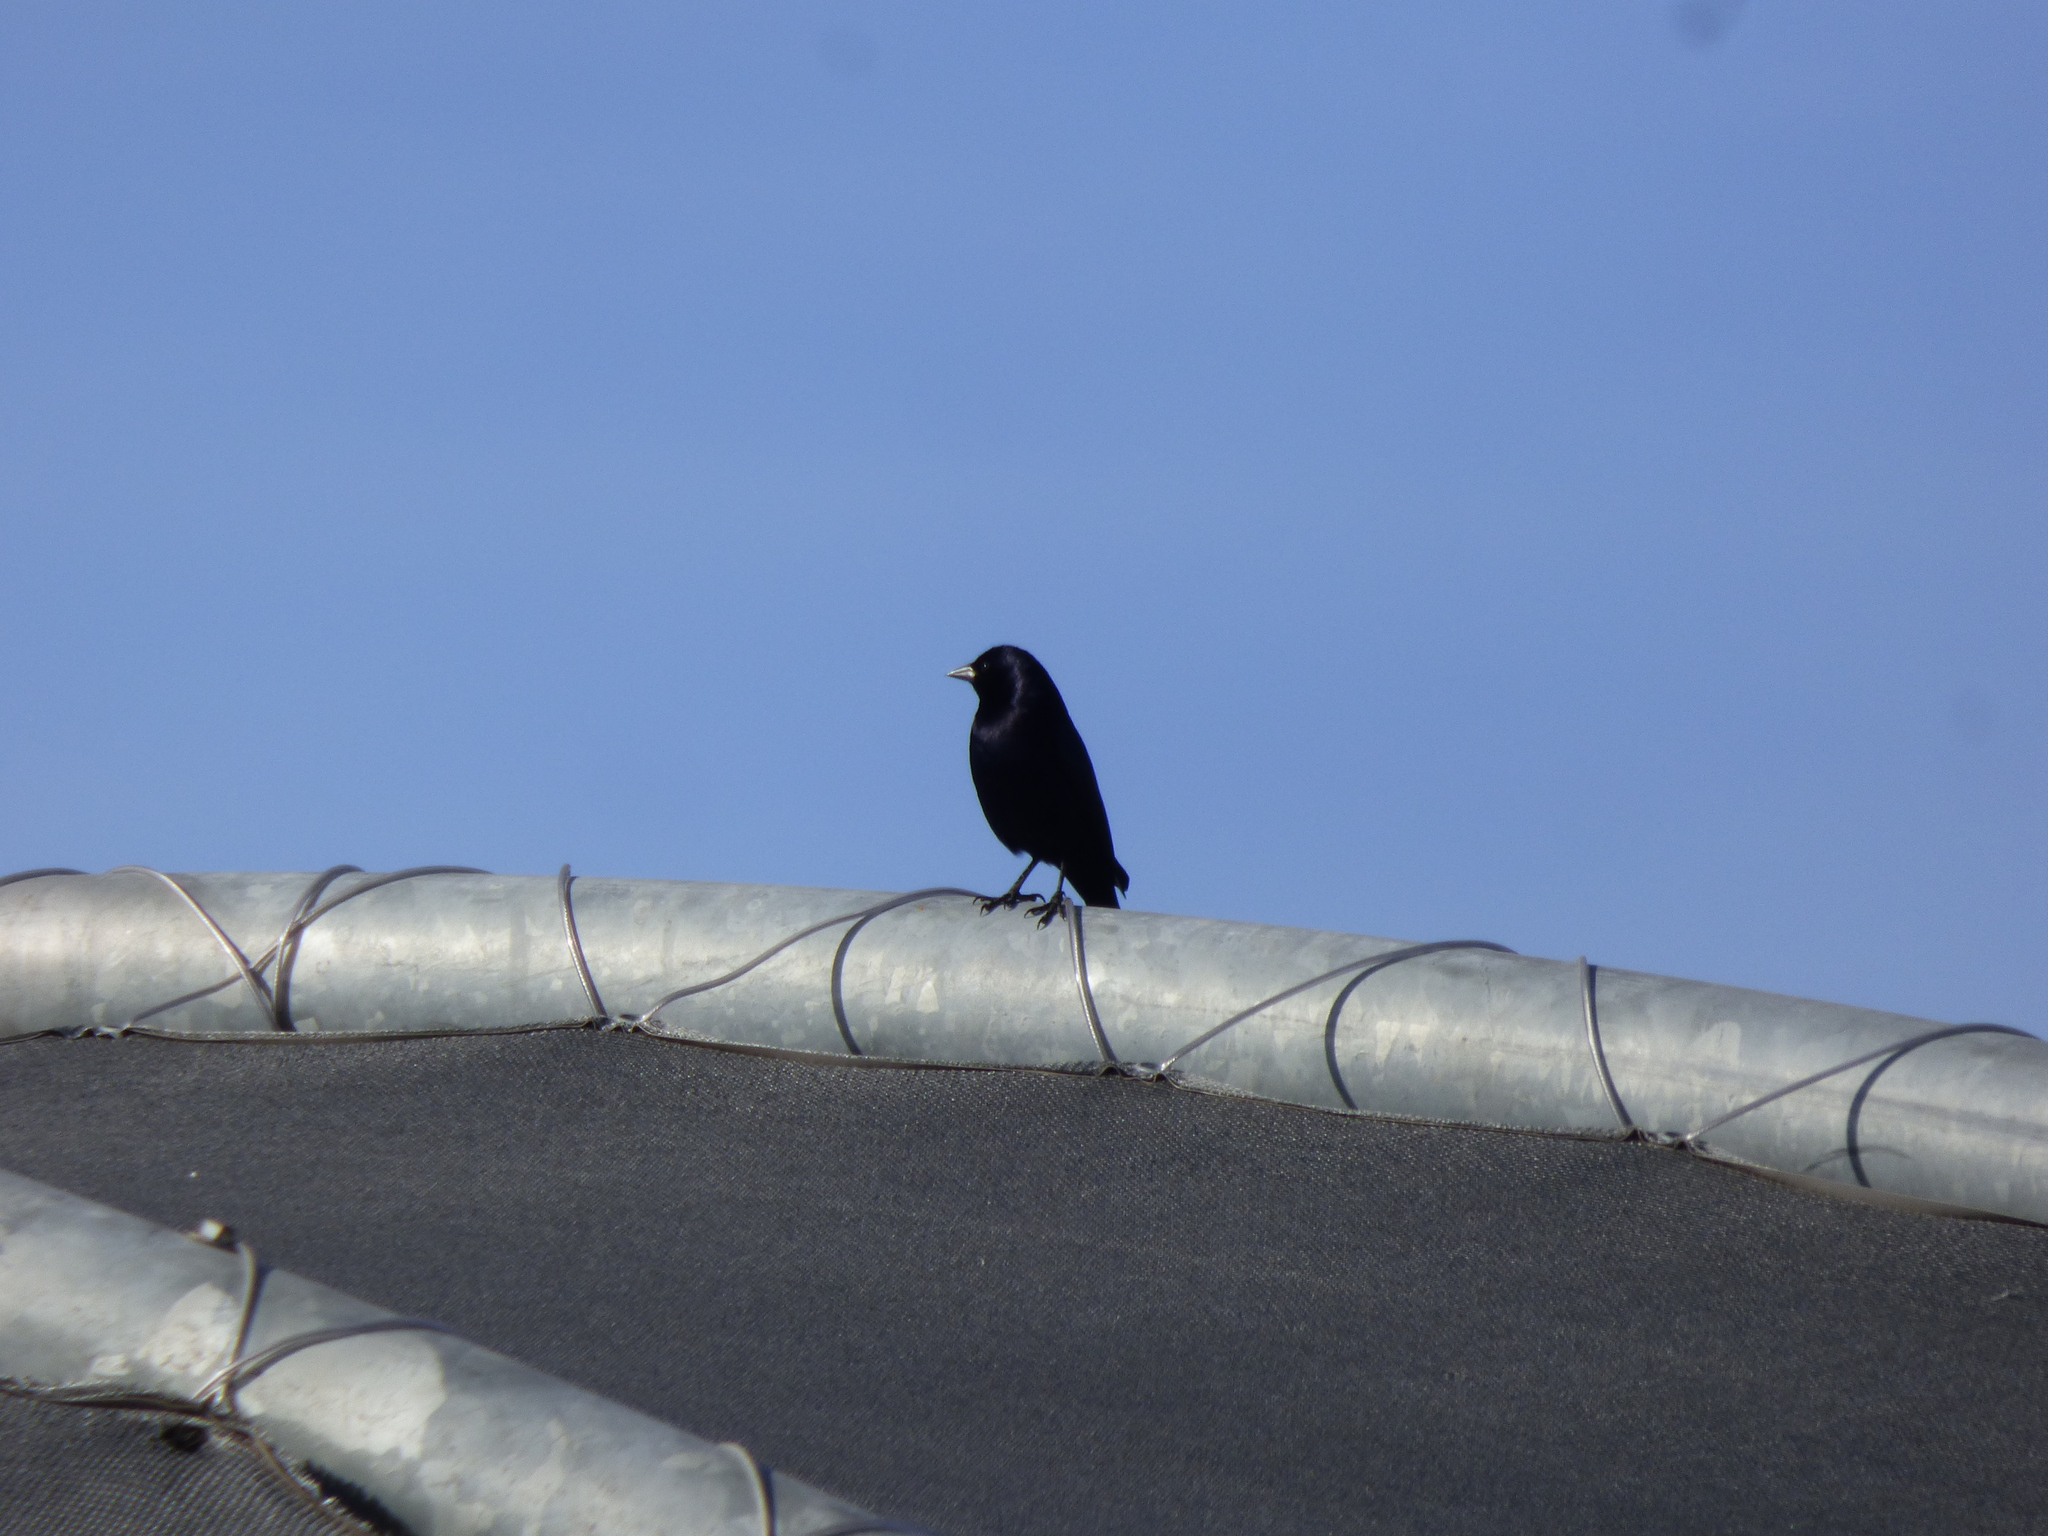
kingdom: Animalia
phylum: Chordata
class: Aves
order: Passeriformes
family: Icteridae
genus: Molothrus
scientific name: Molothrus bonariensis
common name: Shiny cowbird
